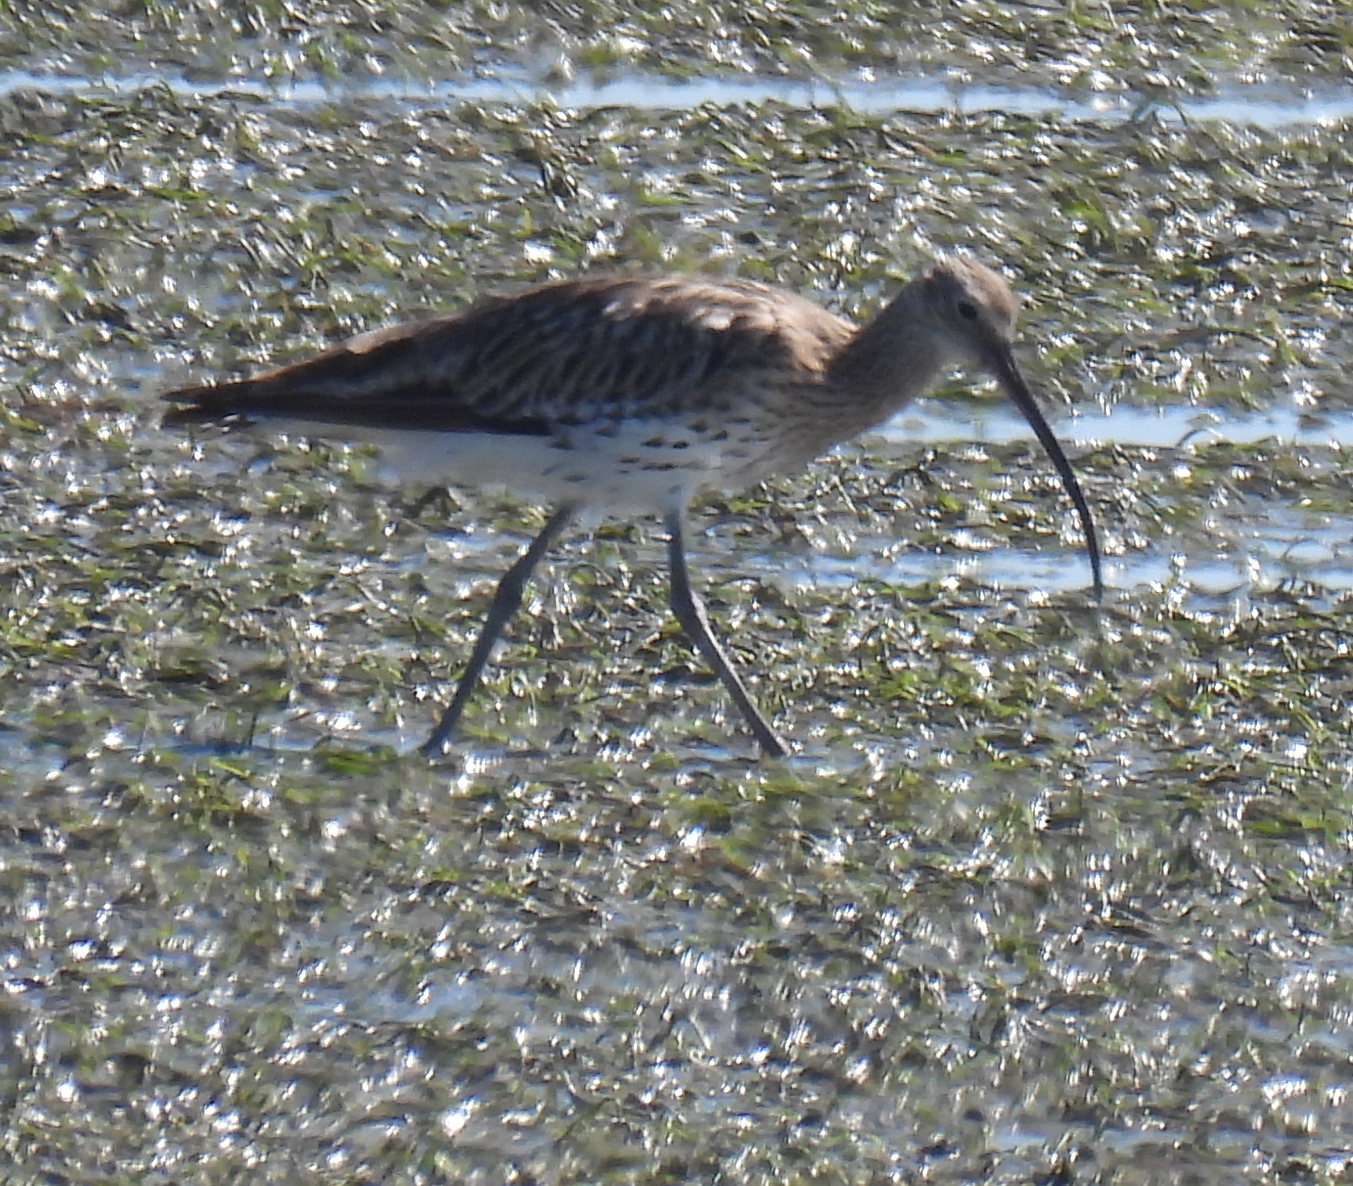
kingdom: Animalia
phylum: Chordata
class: Aves
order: Charadriiformes
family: Scolopacidae
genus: Numenius
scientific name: Numenius arquata
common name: Eurasian curlew
